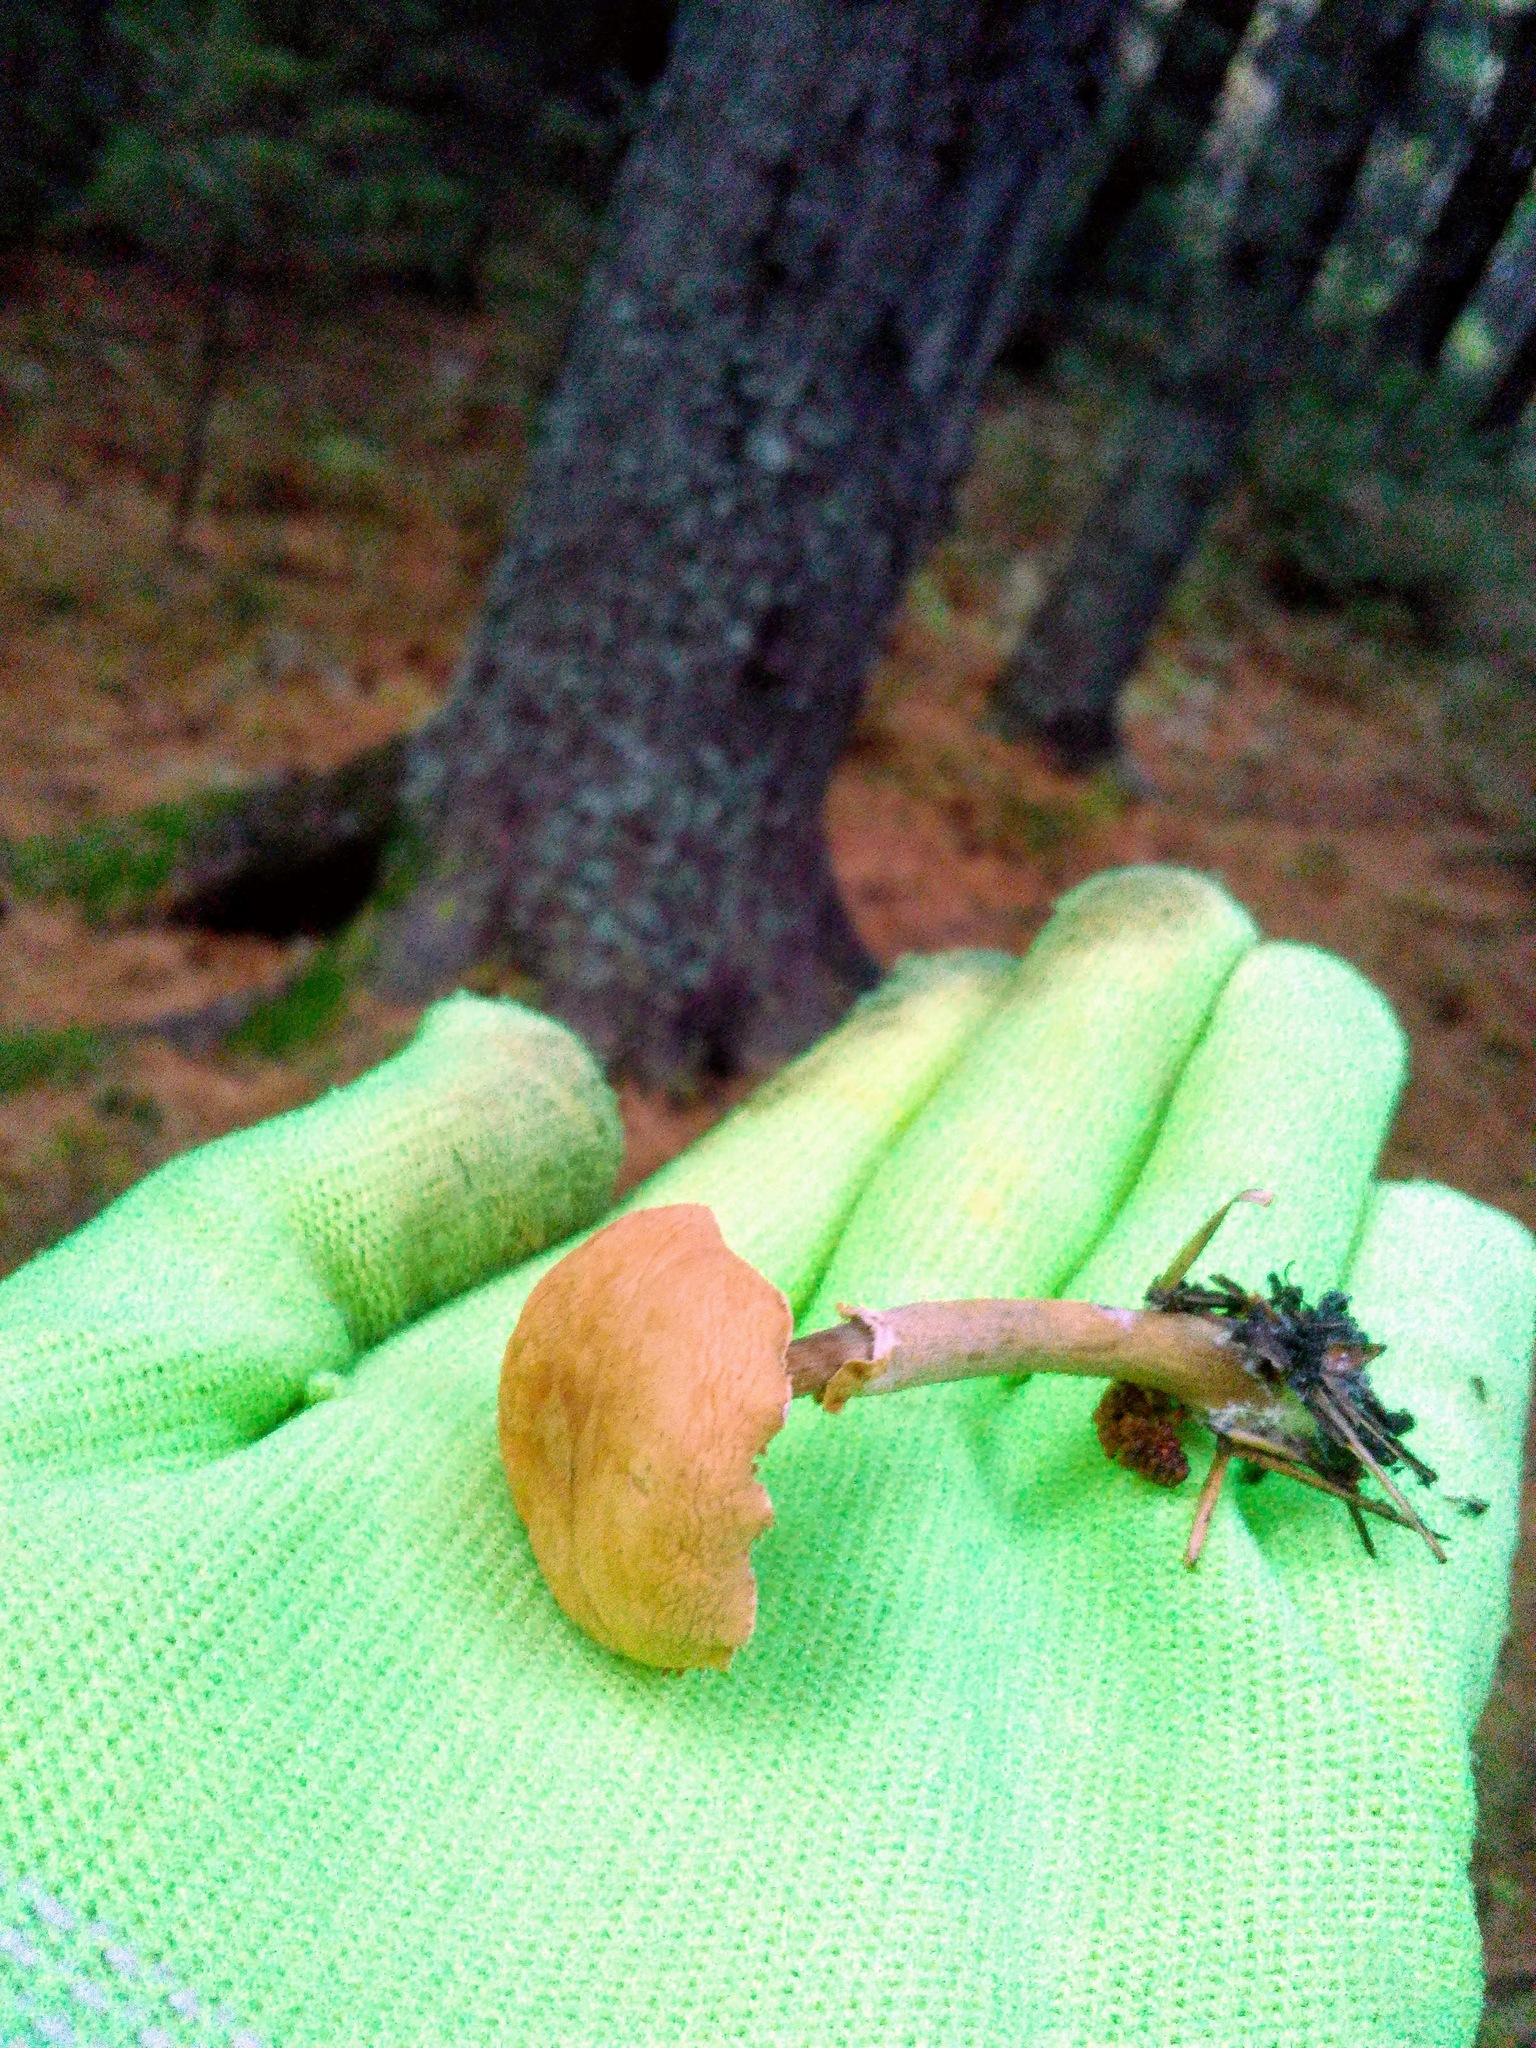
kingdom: Fungi
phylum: Basidiomycota
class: Agaricomycetes
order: Agaricales
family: Agaricaceae
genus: Cystodermella
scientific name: Cystodermella cinnabarina
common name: Cinnabar powdercap
